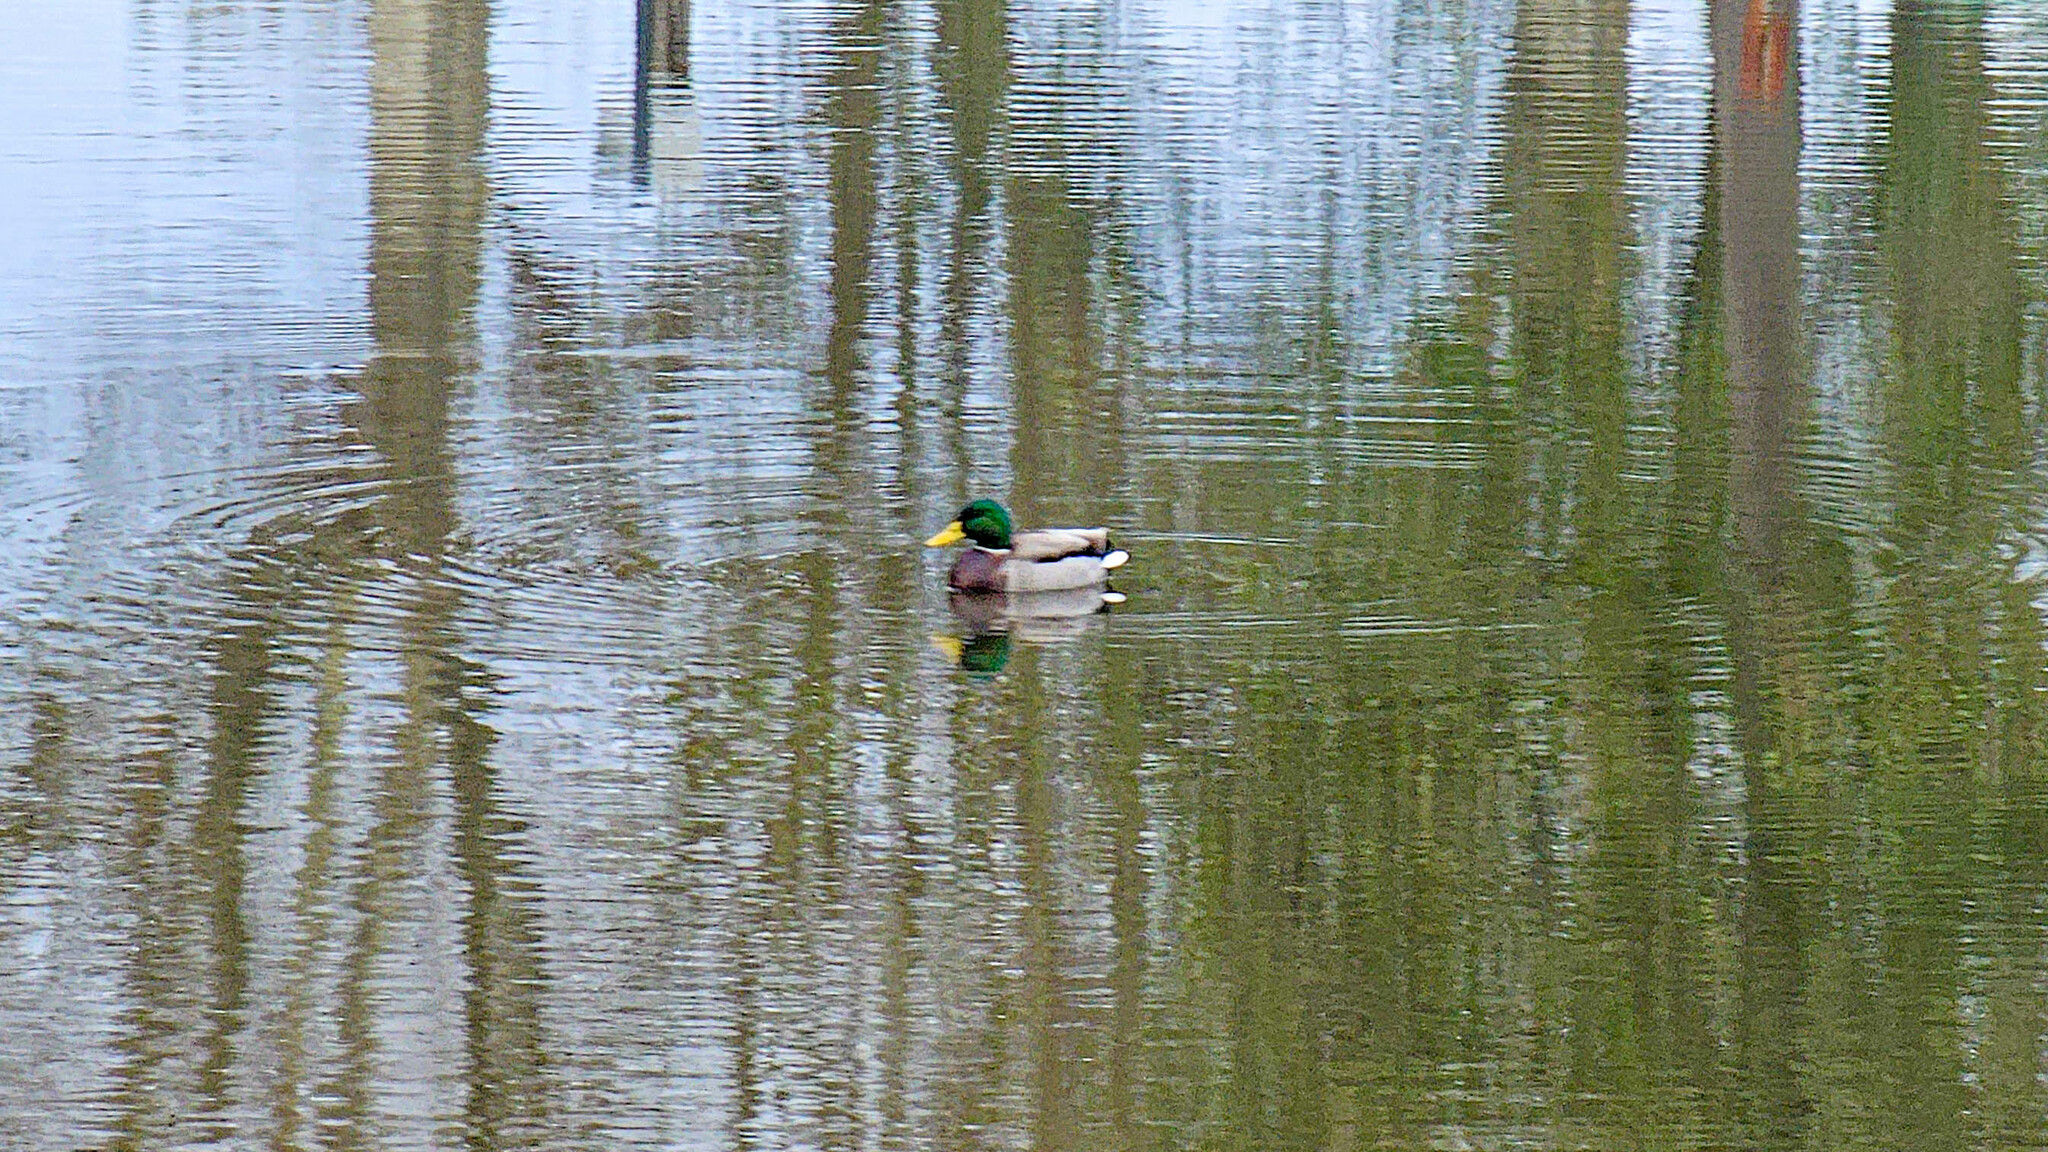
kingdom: Animalia
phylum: Chordata
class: Aves
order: Anseriformes
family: Anatidae
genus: Anas
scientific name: Anas platyrhynchos
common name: Mallard
